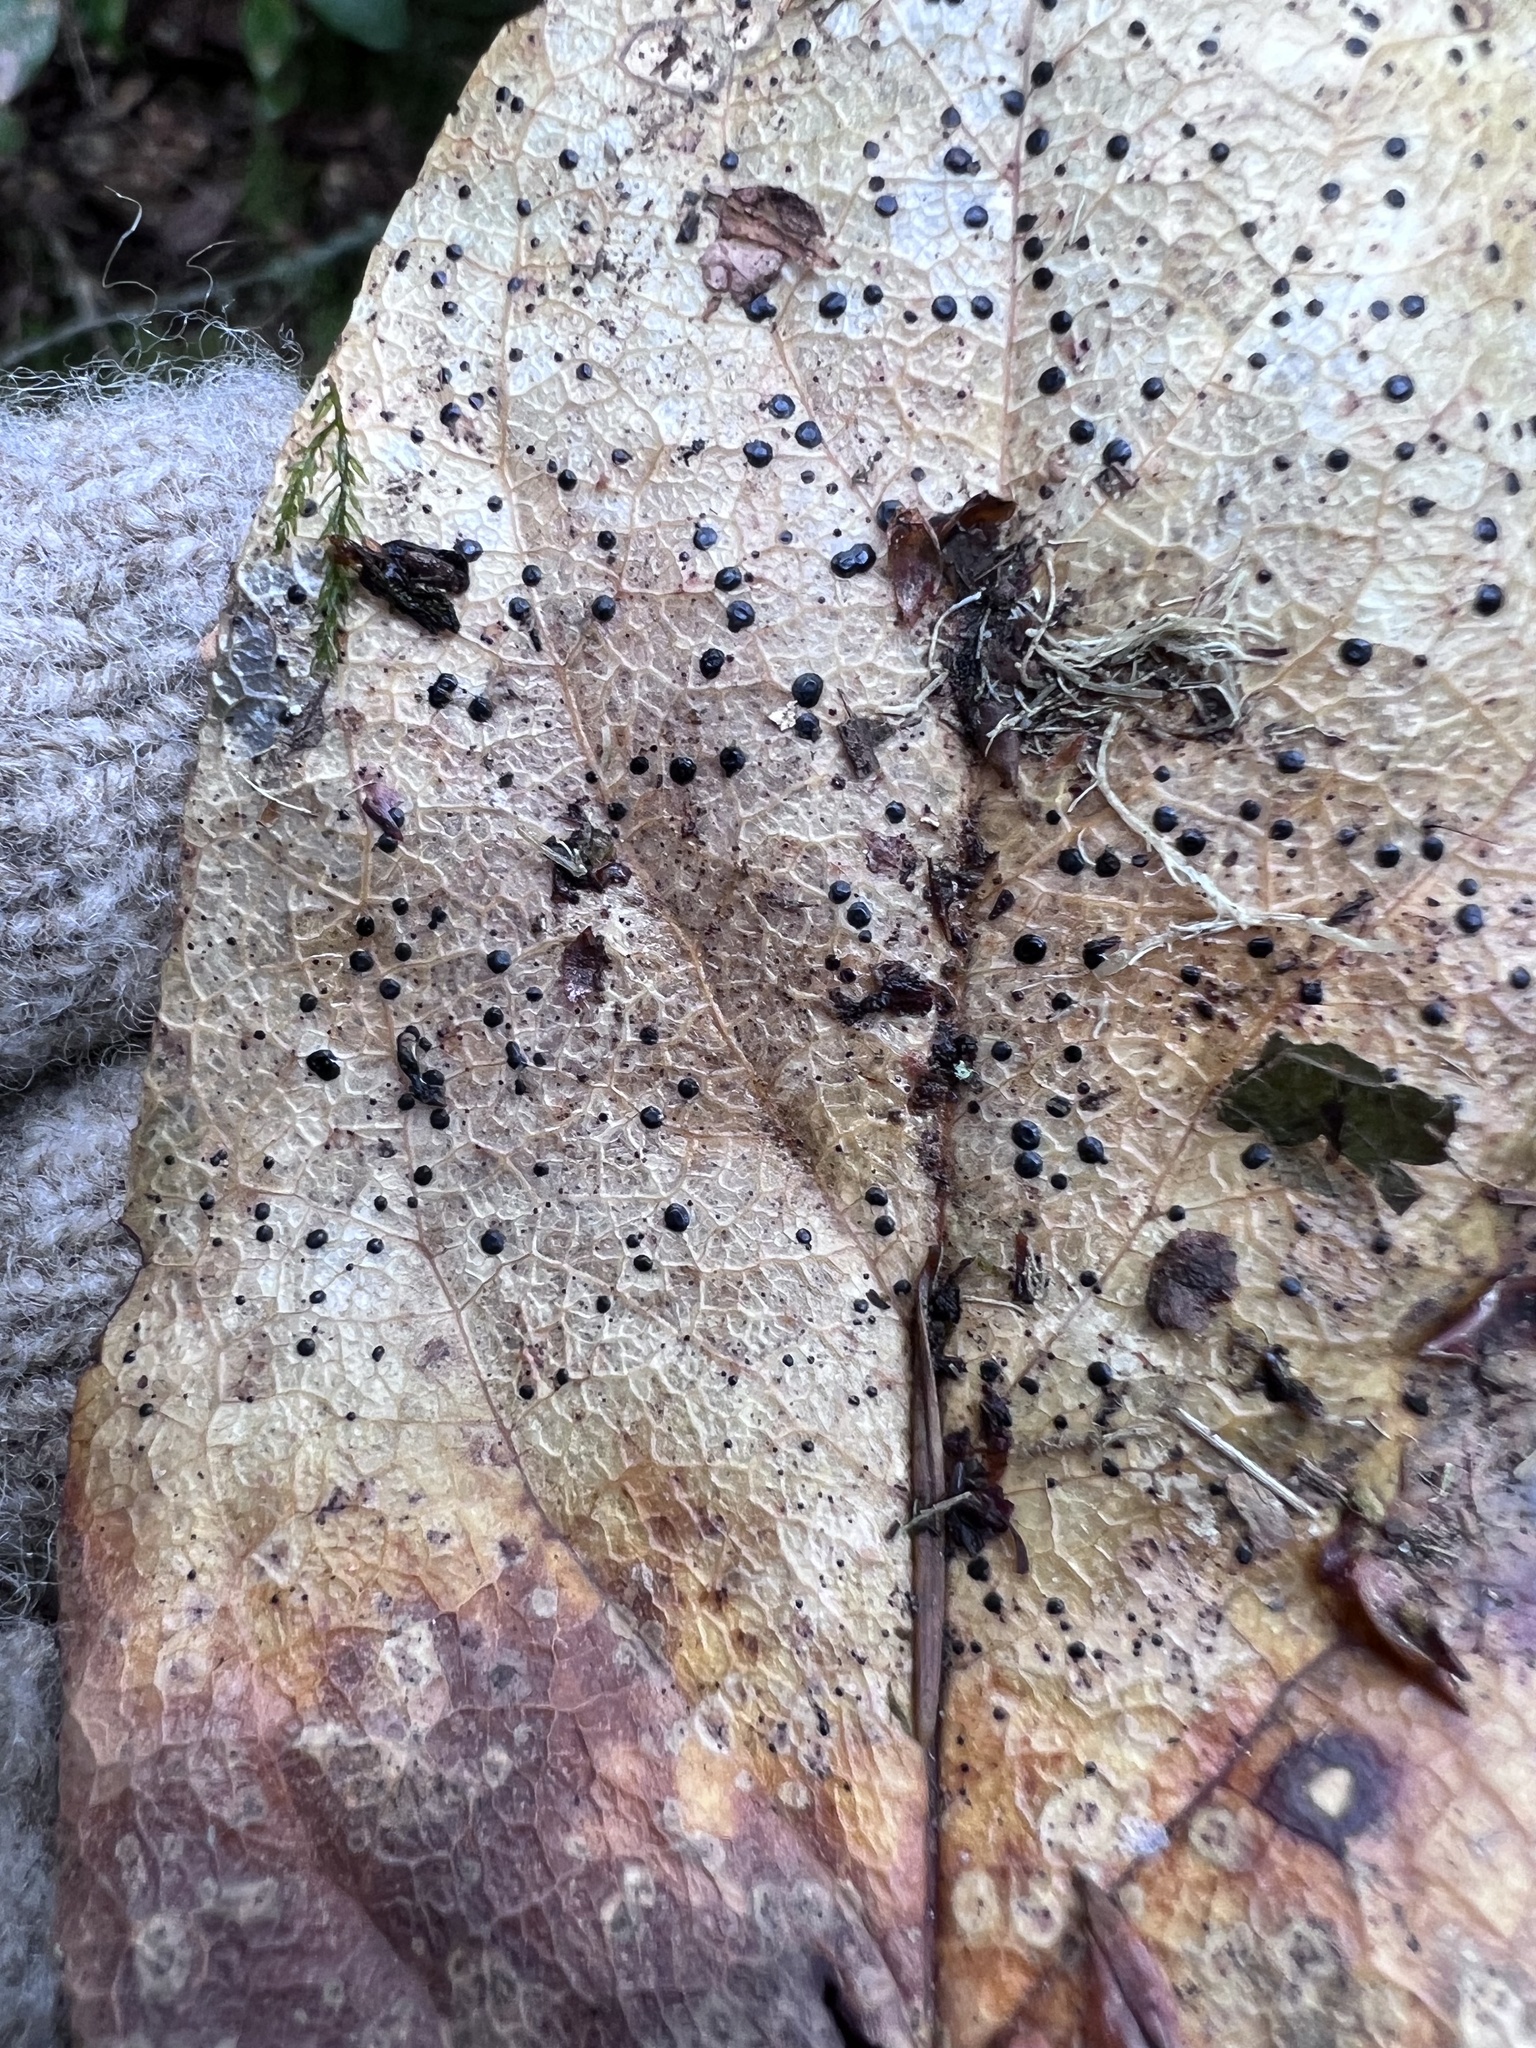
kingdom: Fungi
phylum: Ascomycota
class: Leotiomycetes
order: Rhytismatales
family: Rhytismataceae
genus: Coccomyces
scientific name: Coccomyces dentatus
